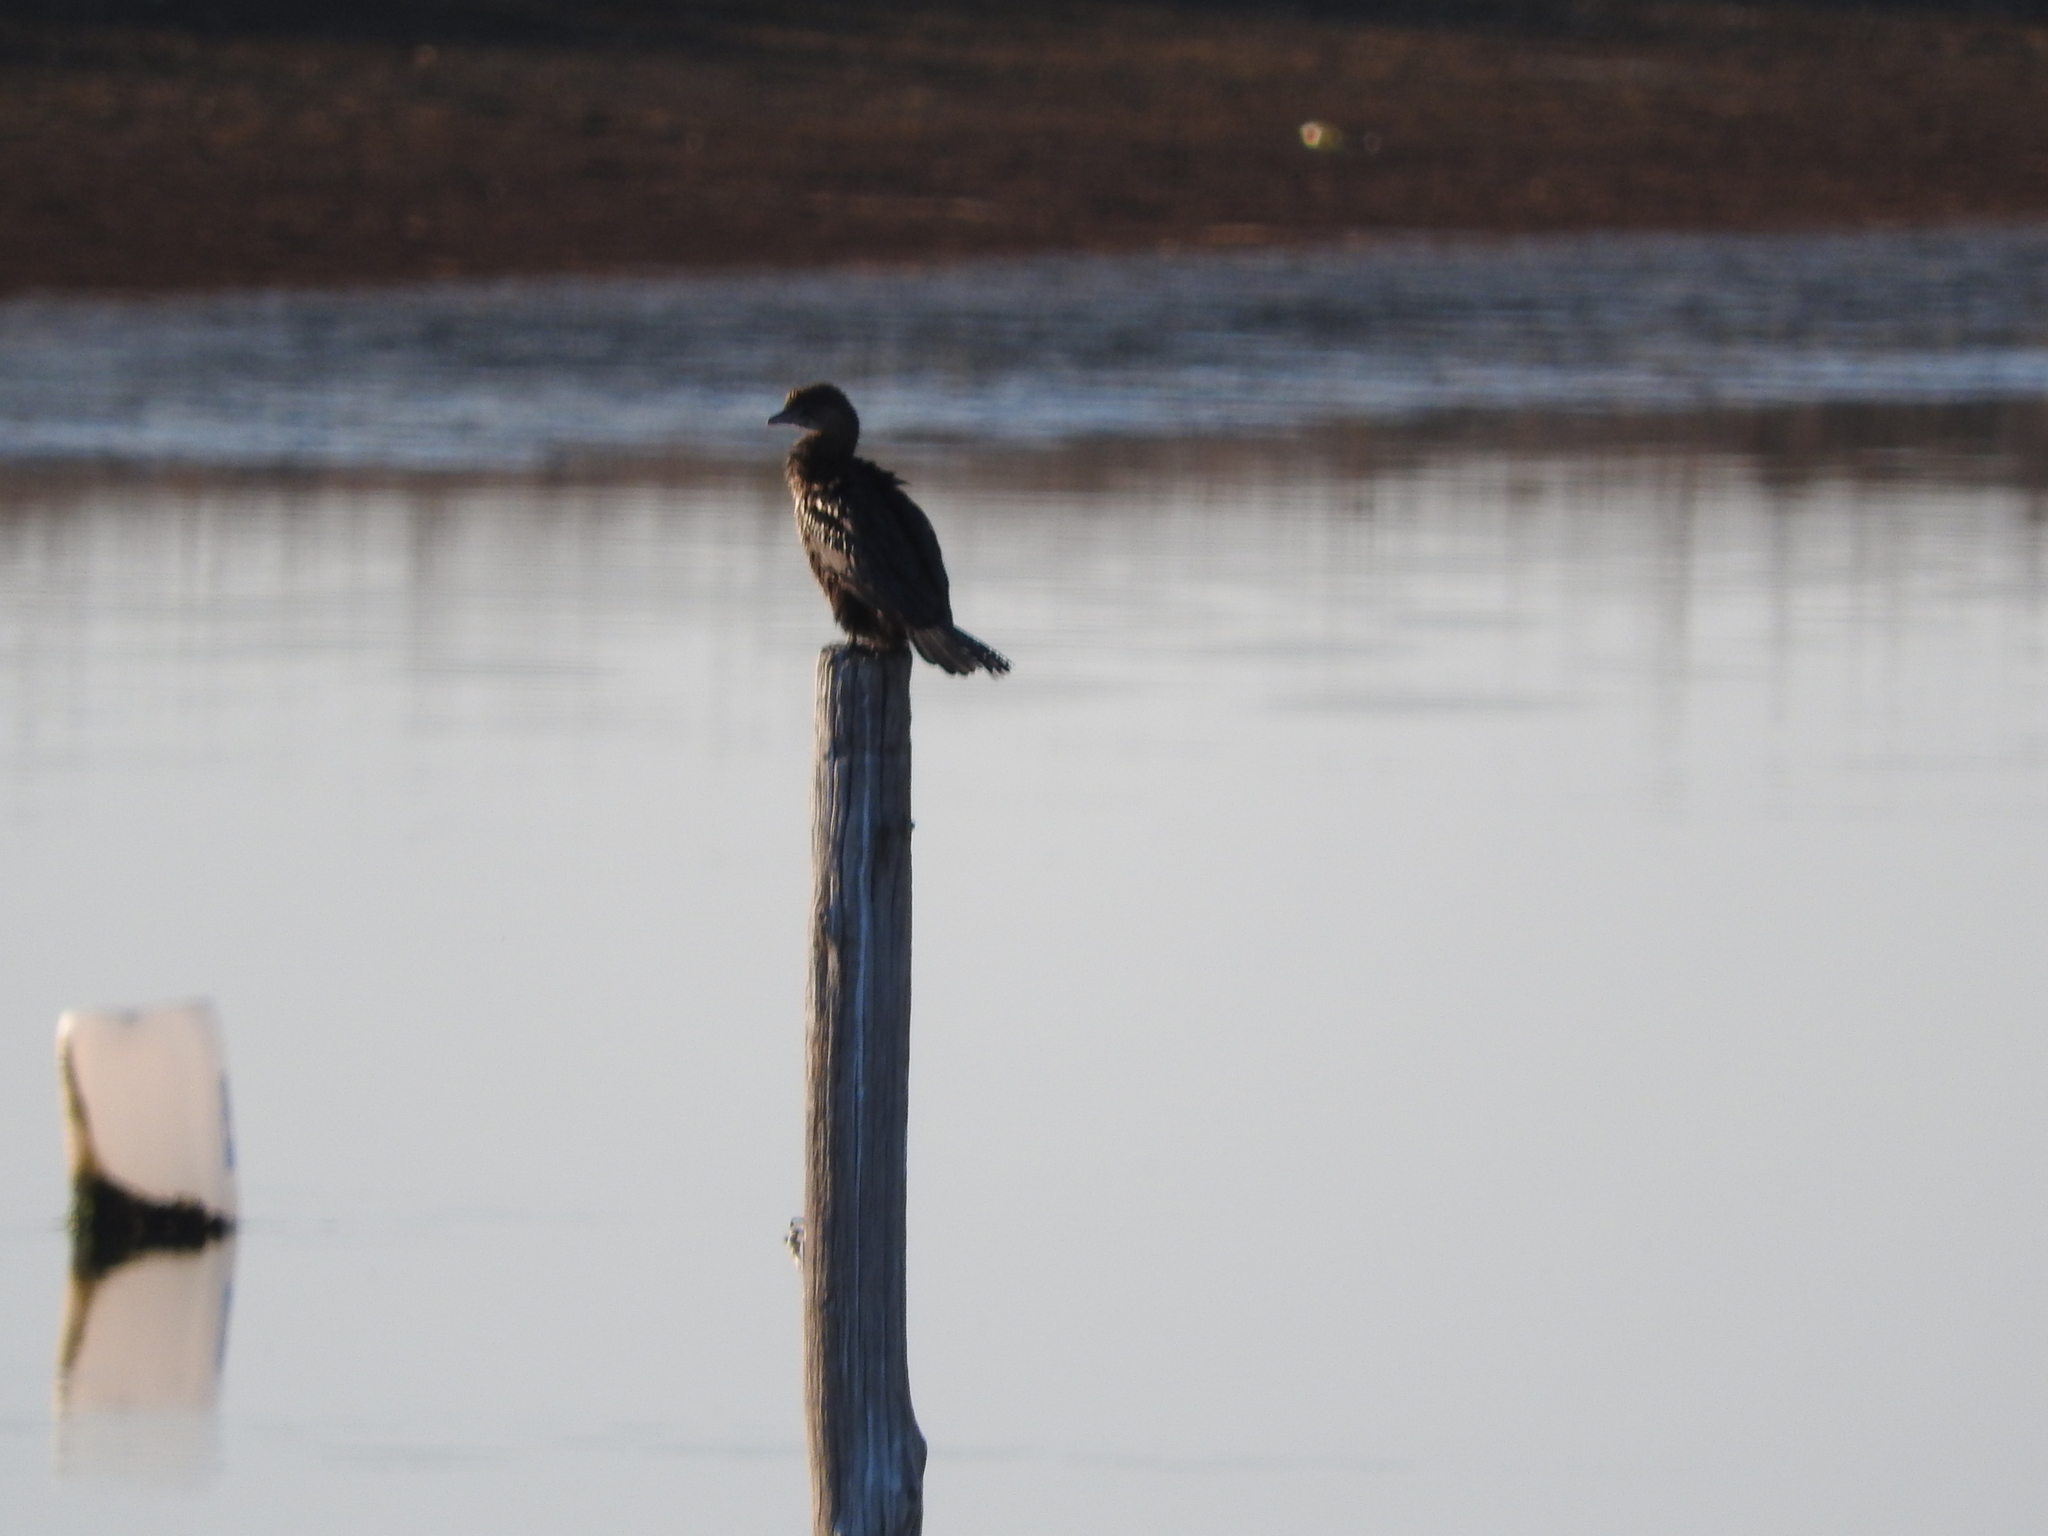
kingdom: Animalia
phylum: Chordata
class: Aves
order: Suliformes
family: Phalacrocoracidae
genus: Microcarbo
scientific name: Microcarbo pygmaeus
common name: Pygmy cormorant
